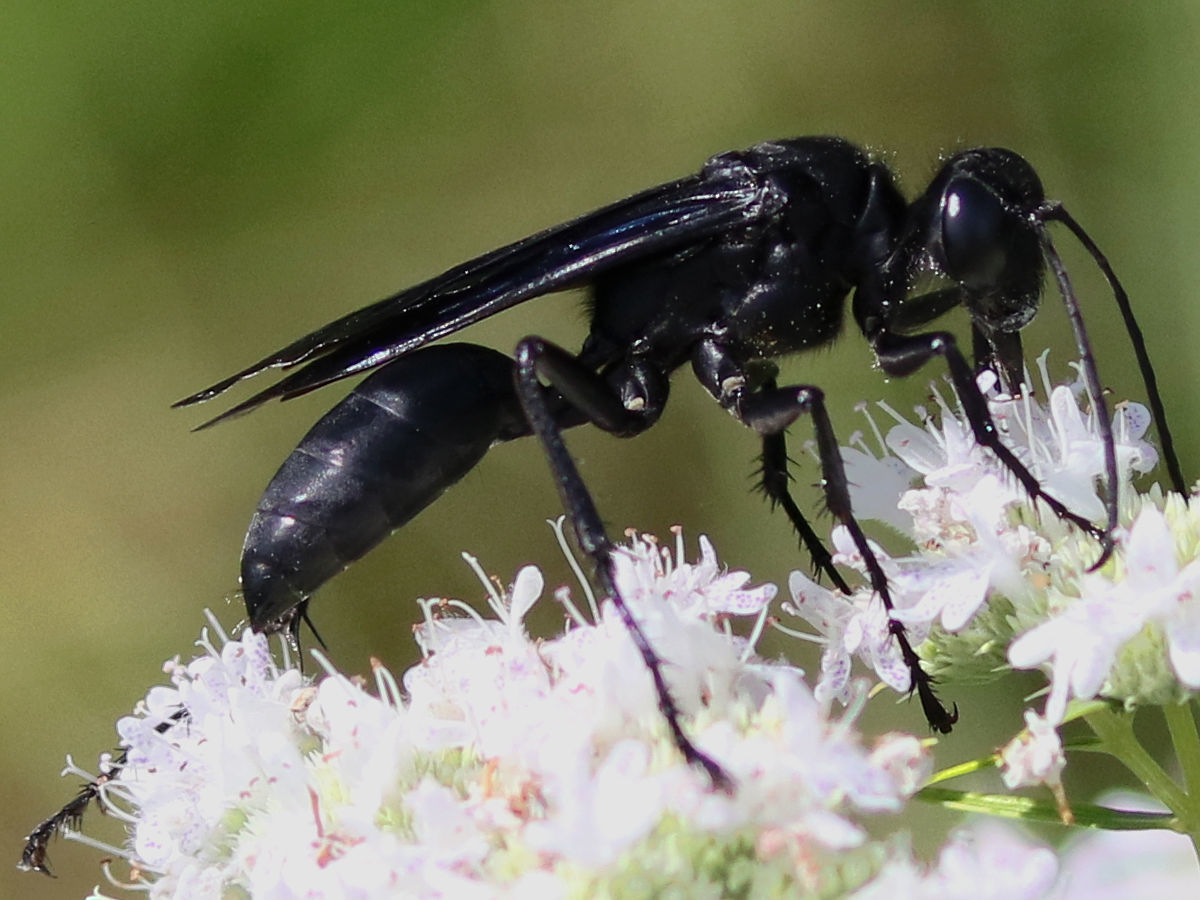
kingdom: Animalia
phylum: Arthropoda
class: Insecta
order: Hymenoptera
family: Sphecidae
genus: Sphex
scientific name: Sphex pensylvanicus
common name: Great black digger wasp
